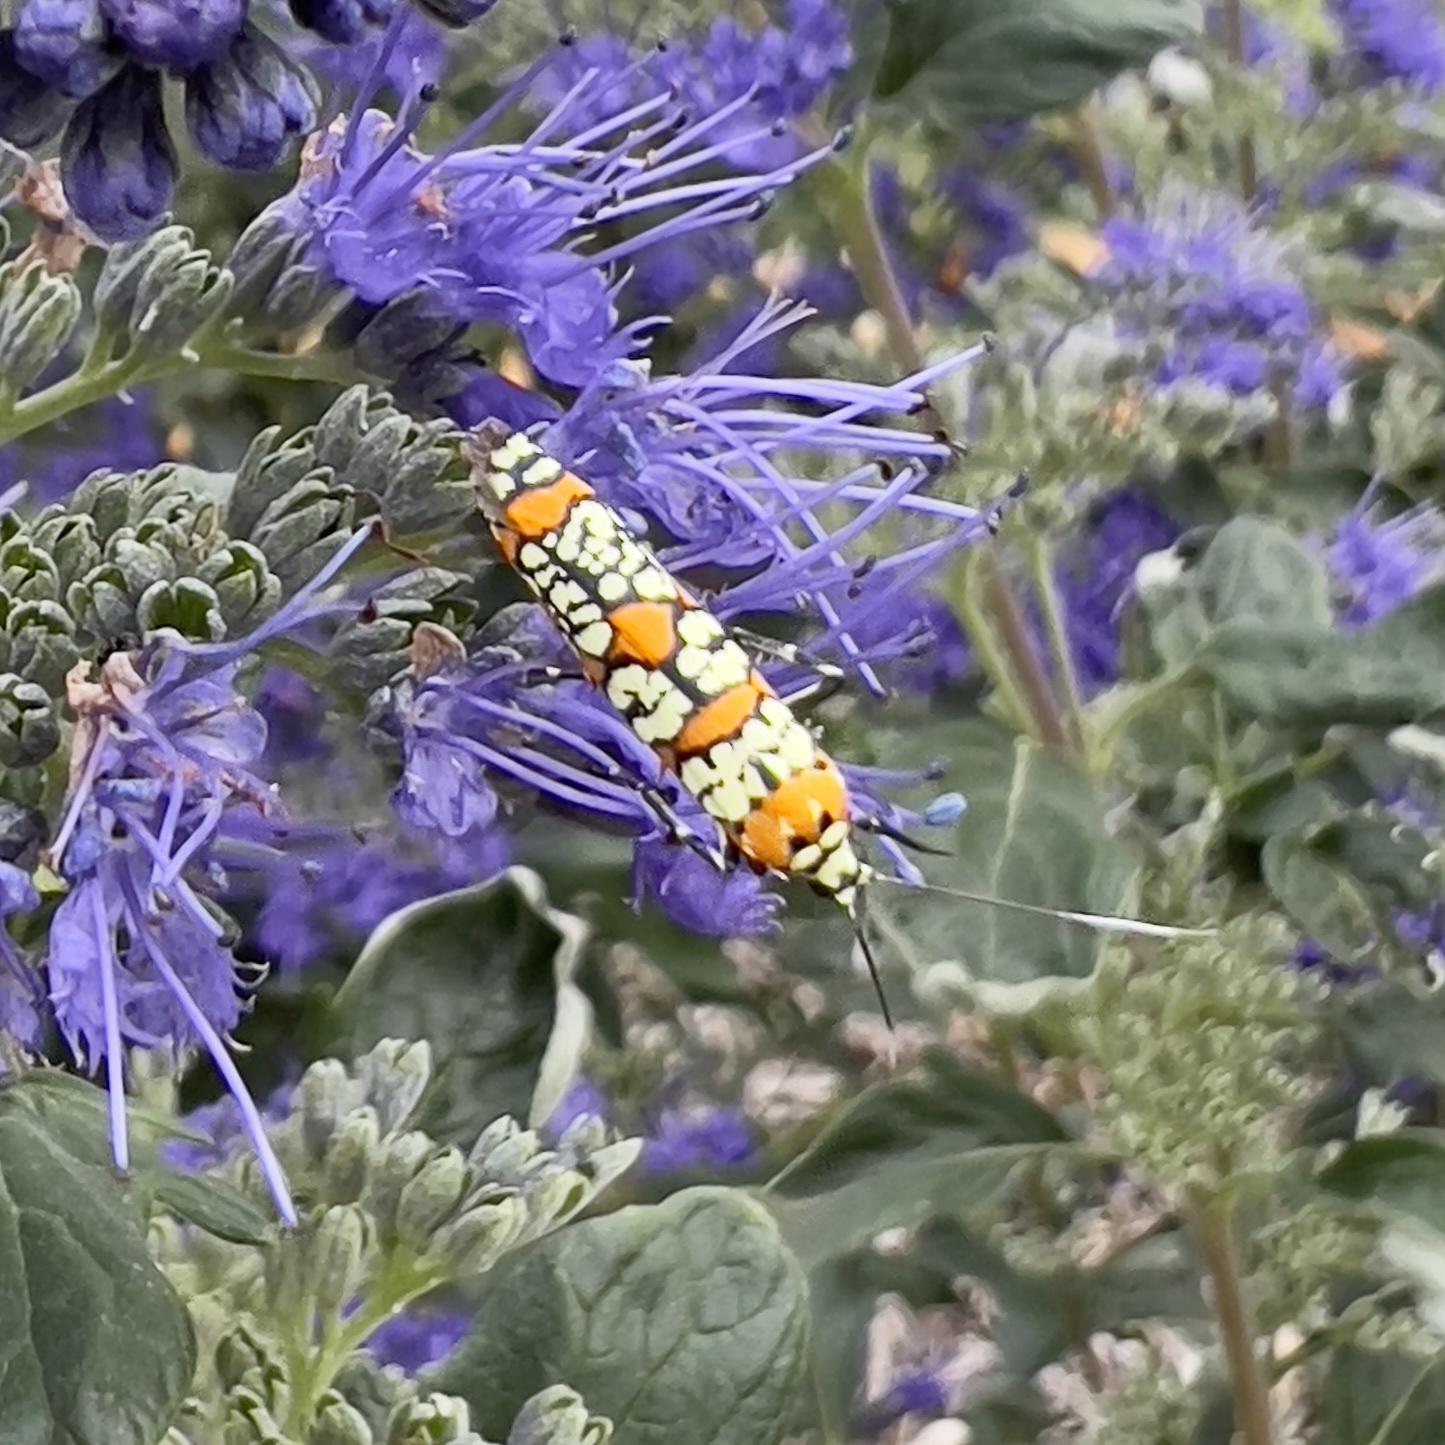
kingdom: Animalia
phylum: Arthropoda
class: Insecta
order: Lepidoptera
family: Attevidae
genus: Atteva
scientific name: Atteva punctella
